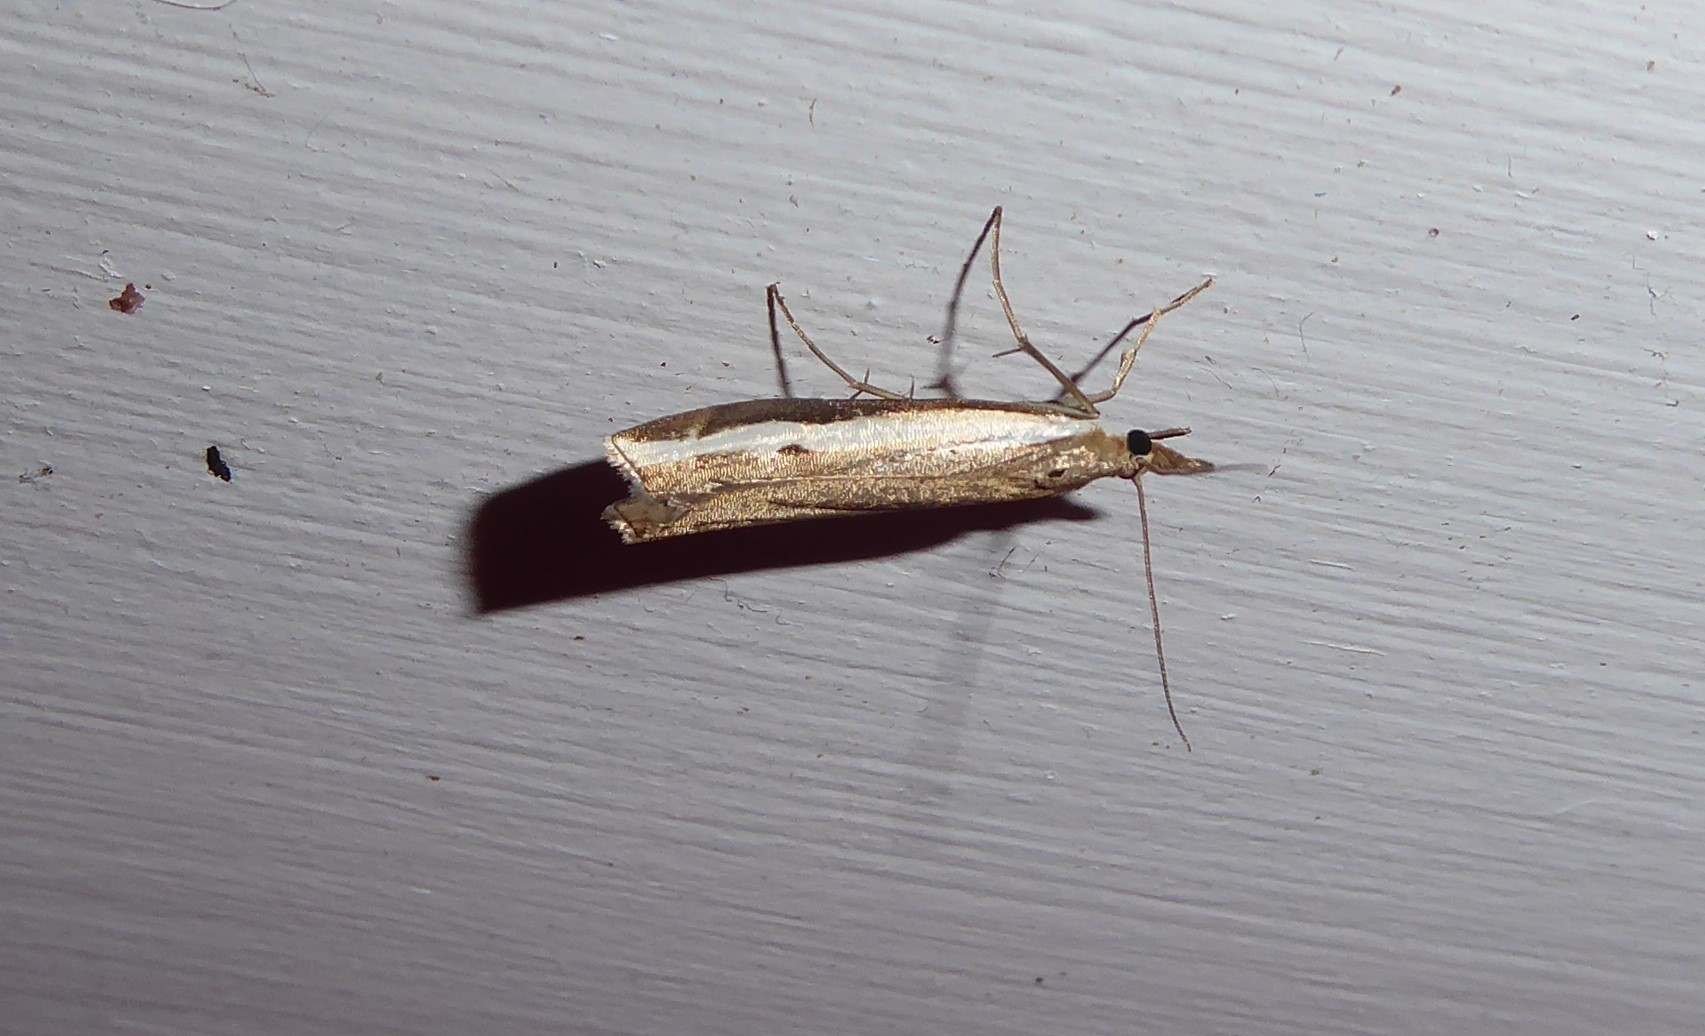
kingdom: Animalia
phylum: Arthropoda
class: Insecta
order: Lepidoptera
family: Crambidae
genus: Orocrambus
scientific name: Orocrambus flexuosellus
